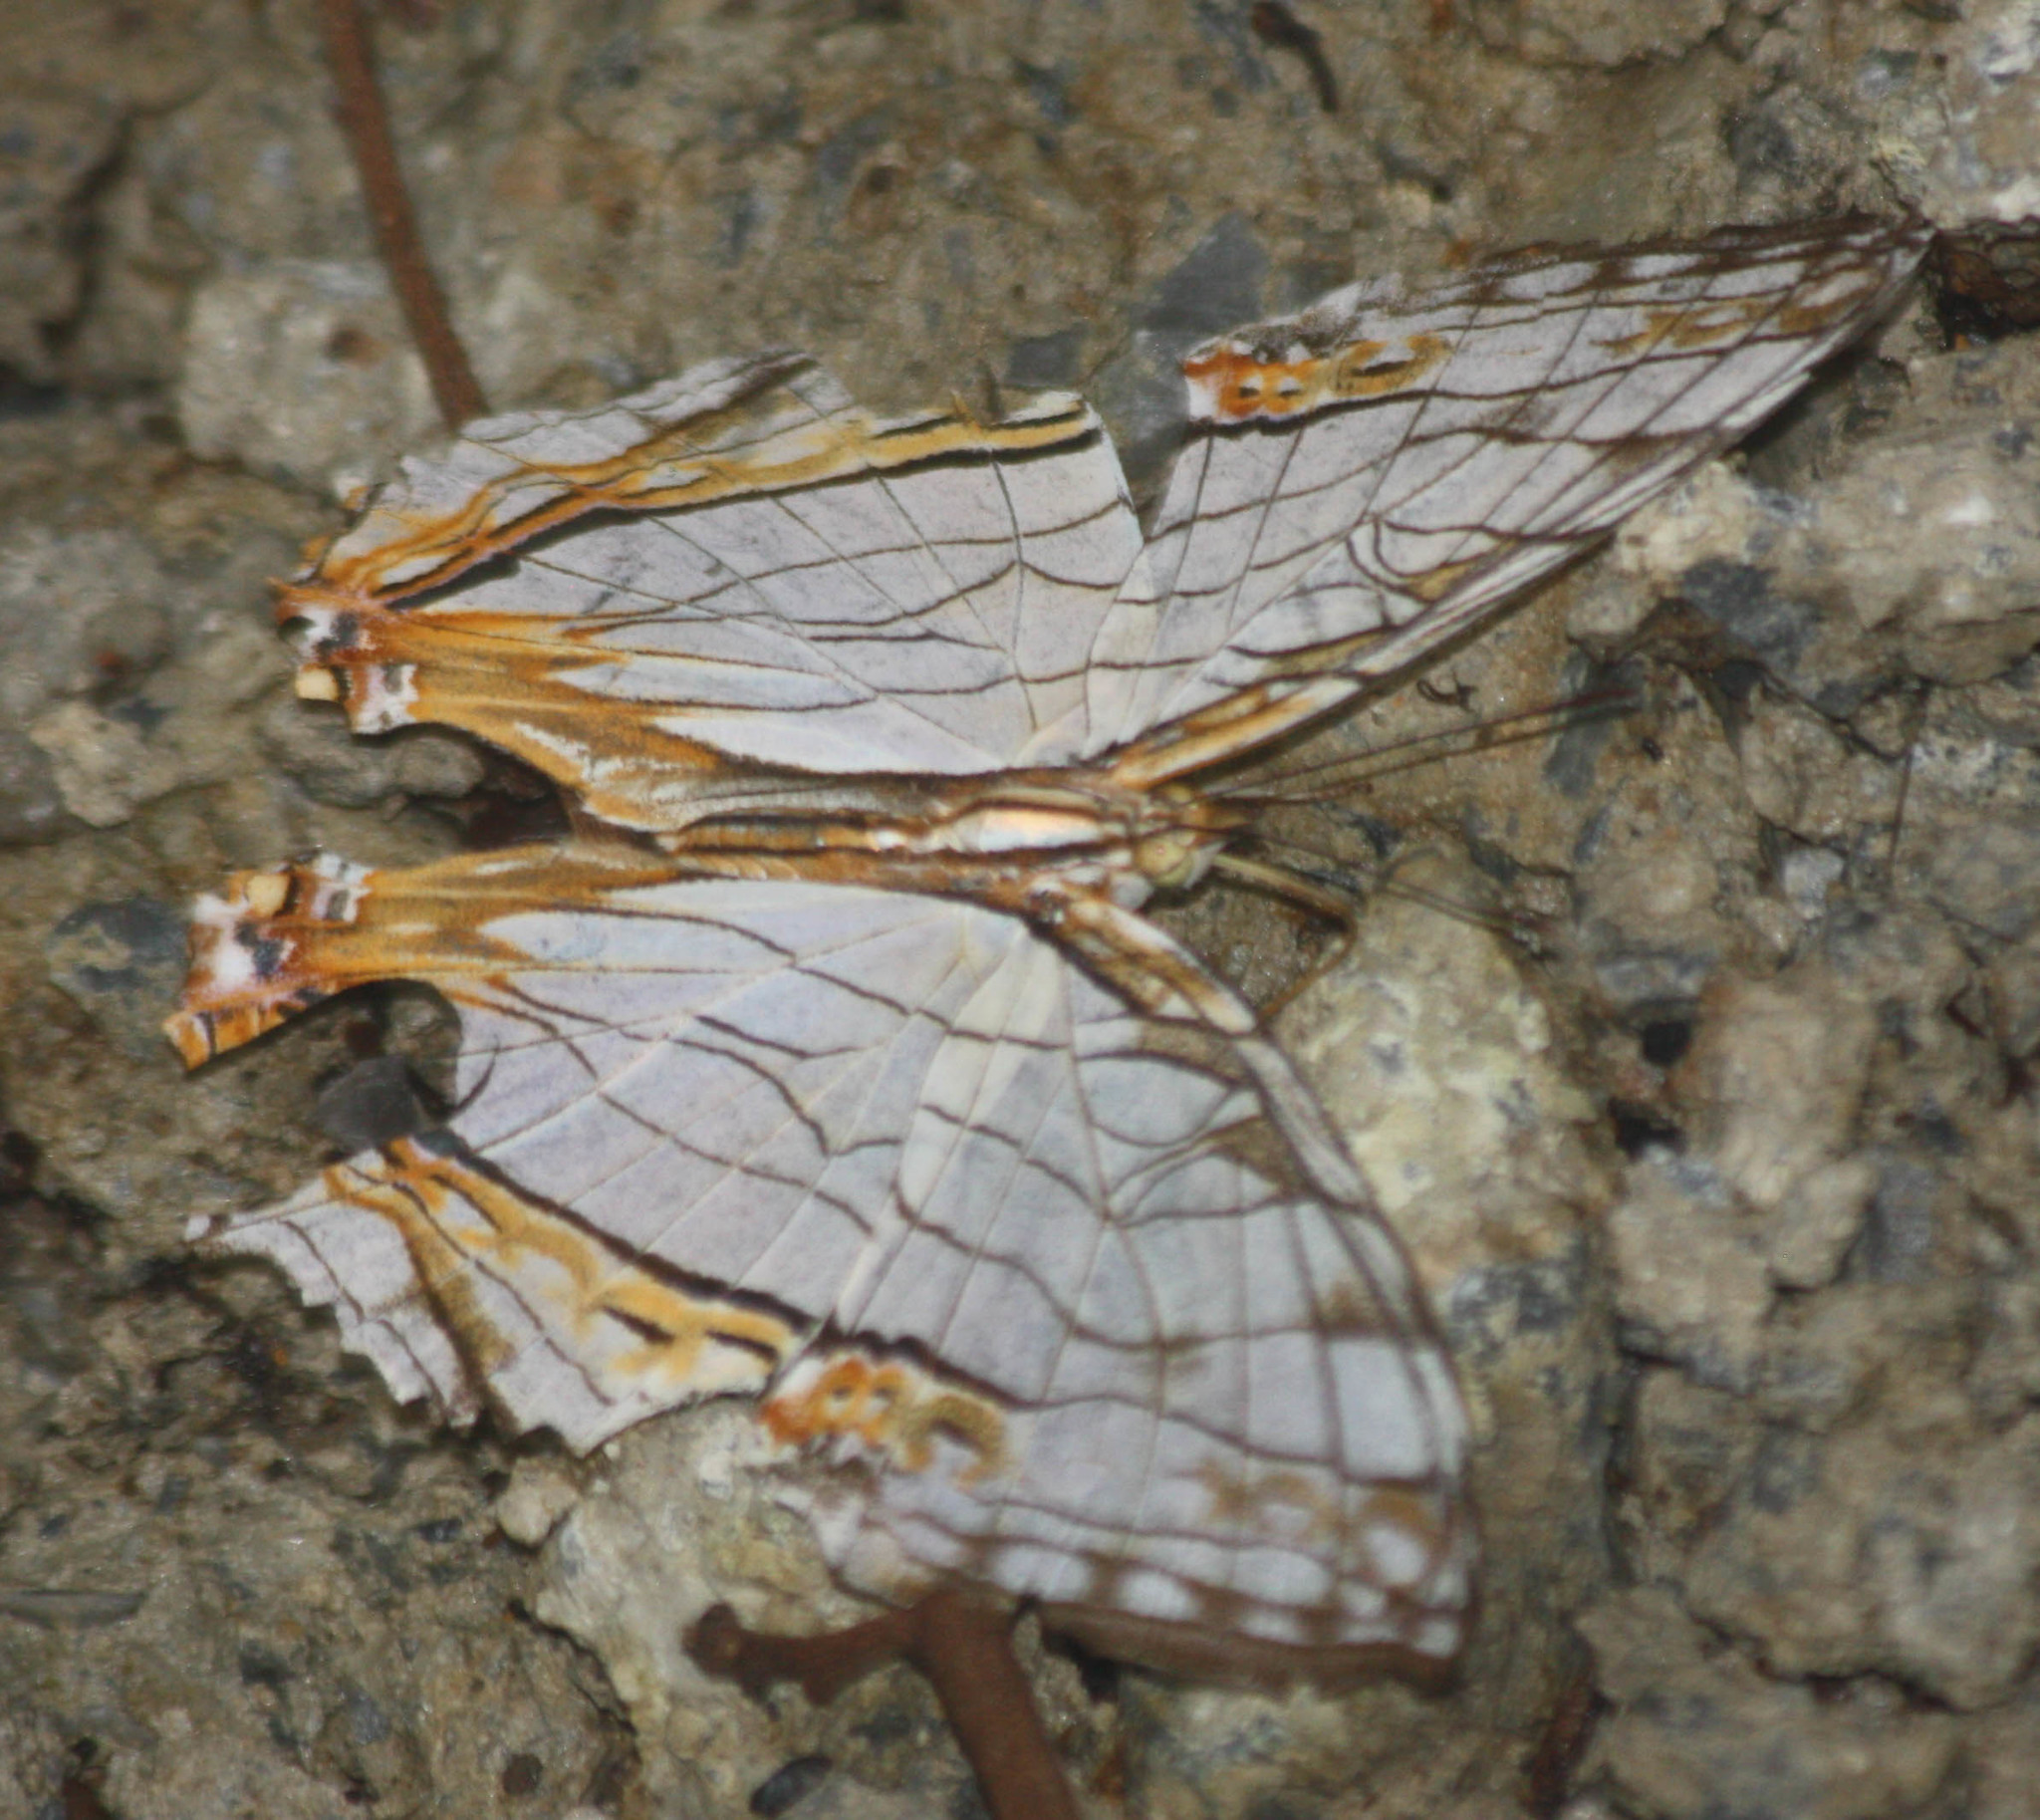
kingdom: Animalia
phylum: Arthropoda
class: Insecta
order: Lepidoptera
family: Nymphalidae
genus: Cyrestis
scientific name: Cyrestis thyodamas
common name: Common mapwing
